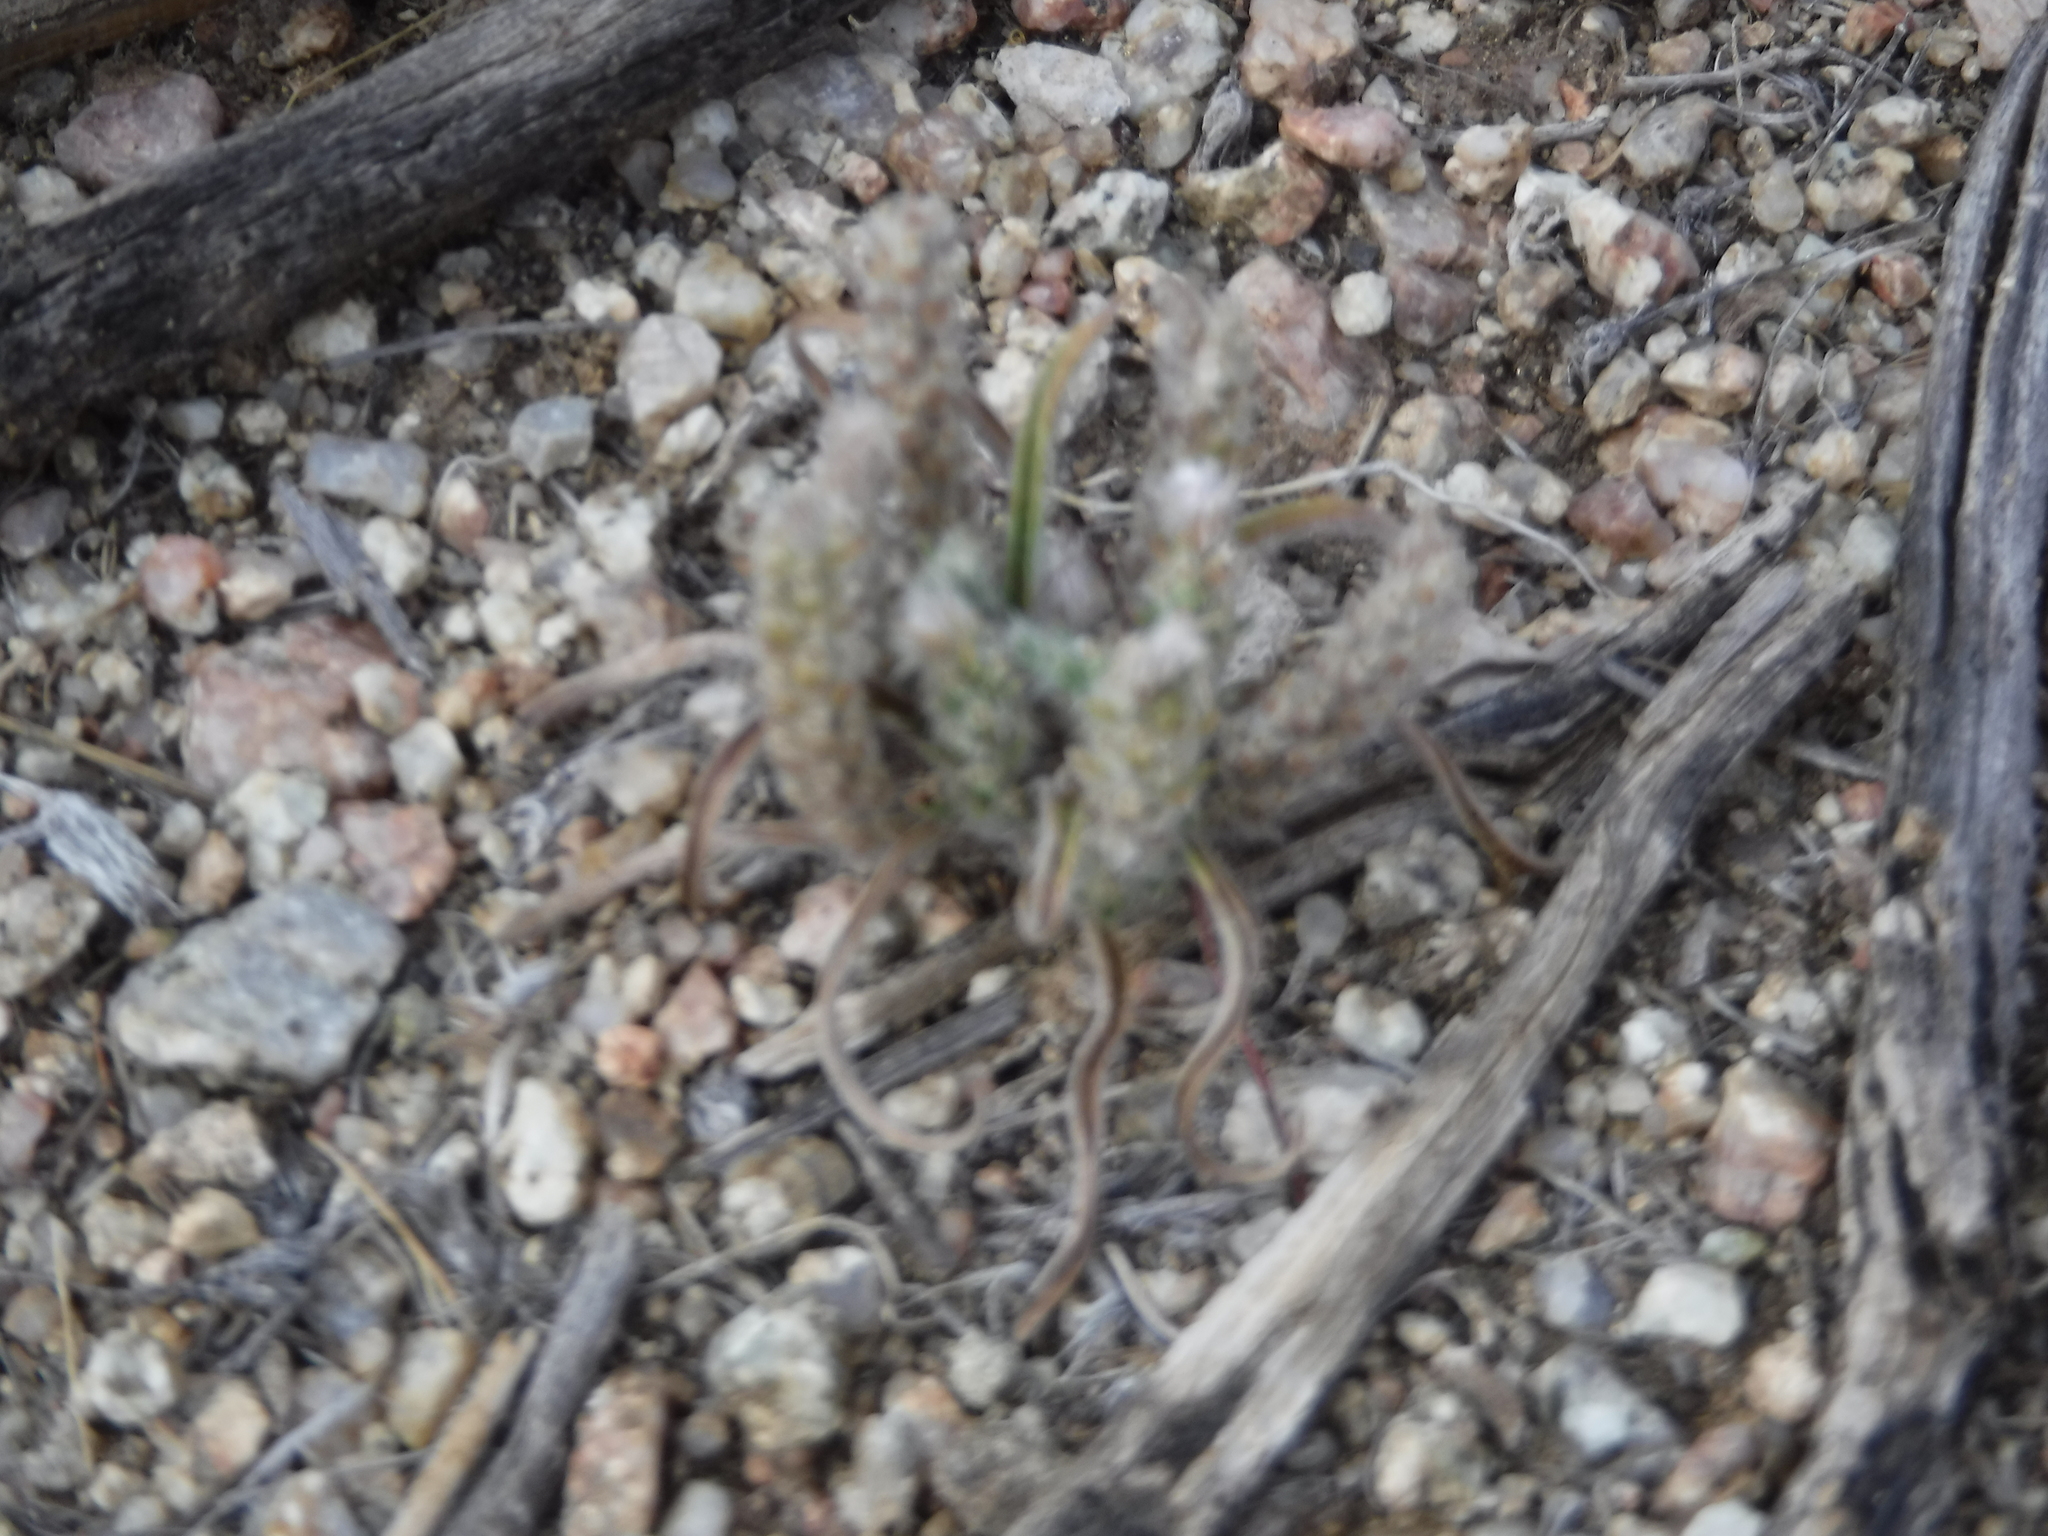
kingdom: Plantae
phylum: Tracheophyta
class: Magnoliopsida
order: Lamiales
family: Plantaginaceae
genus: Plantago
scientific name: Plantago patagonica
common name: Patagonia indian-wheat
